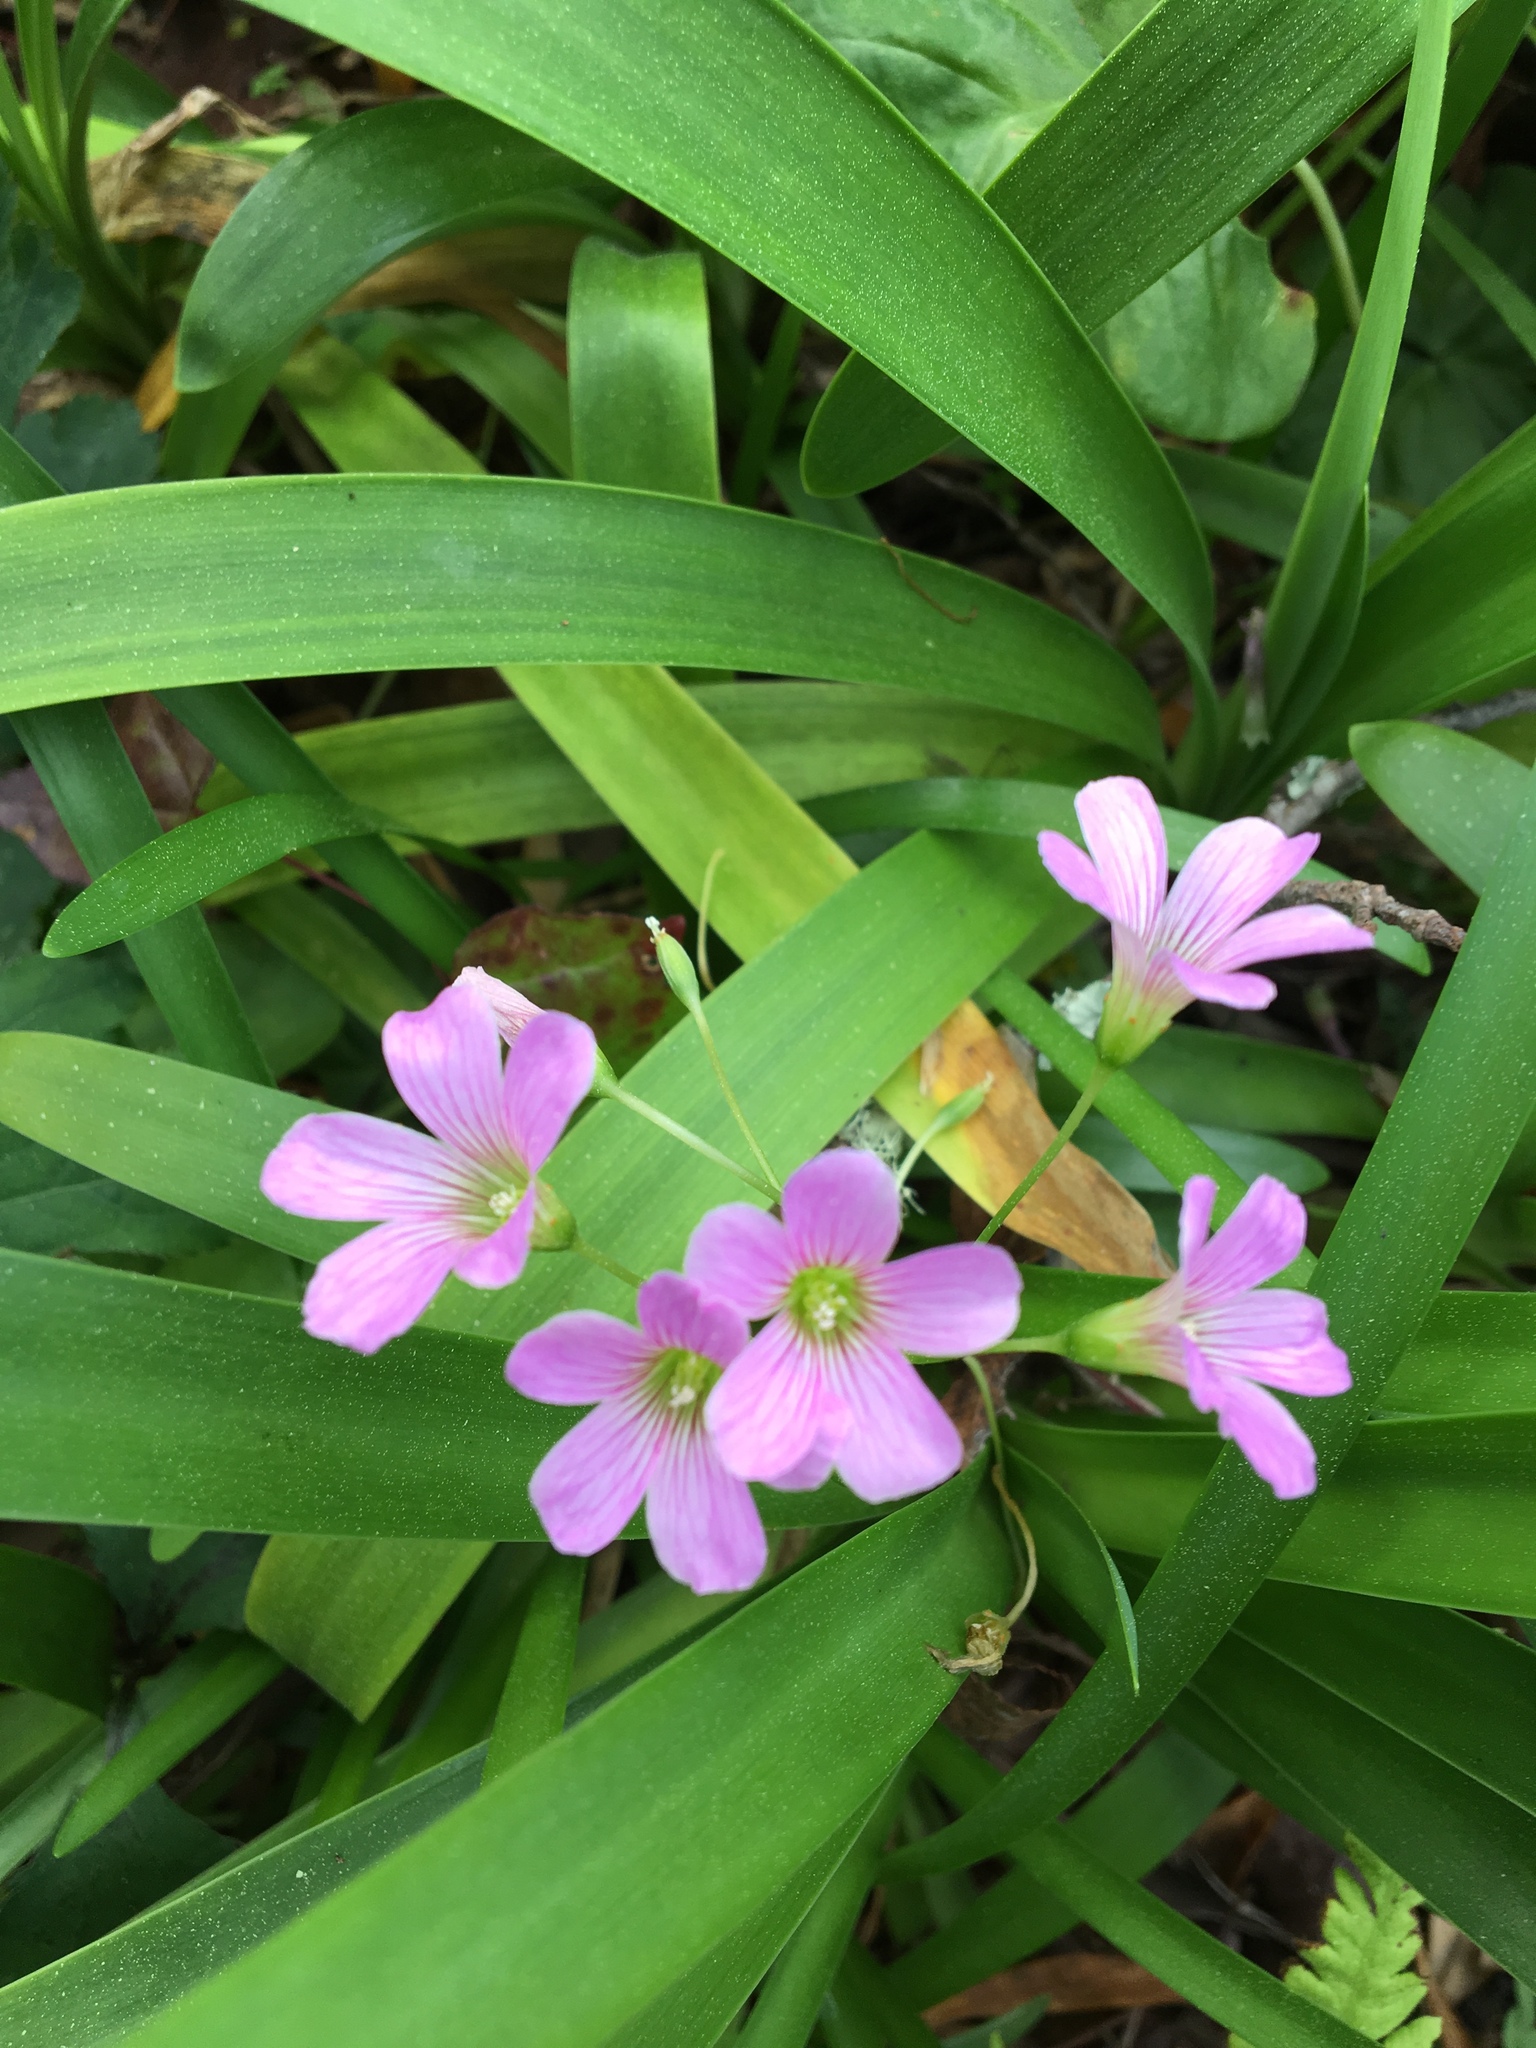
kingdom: Plantae
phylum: Tracheophyta
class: Magnoliopsida
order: Oxalidales
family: Oxalidaceae
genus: Oxalis
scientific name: Oxalis debilis
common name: Large-flowered pink-sorrel
